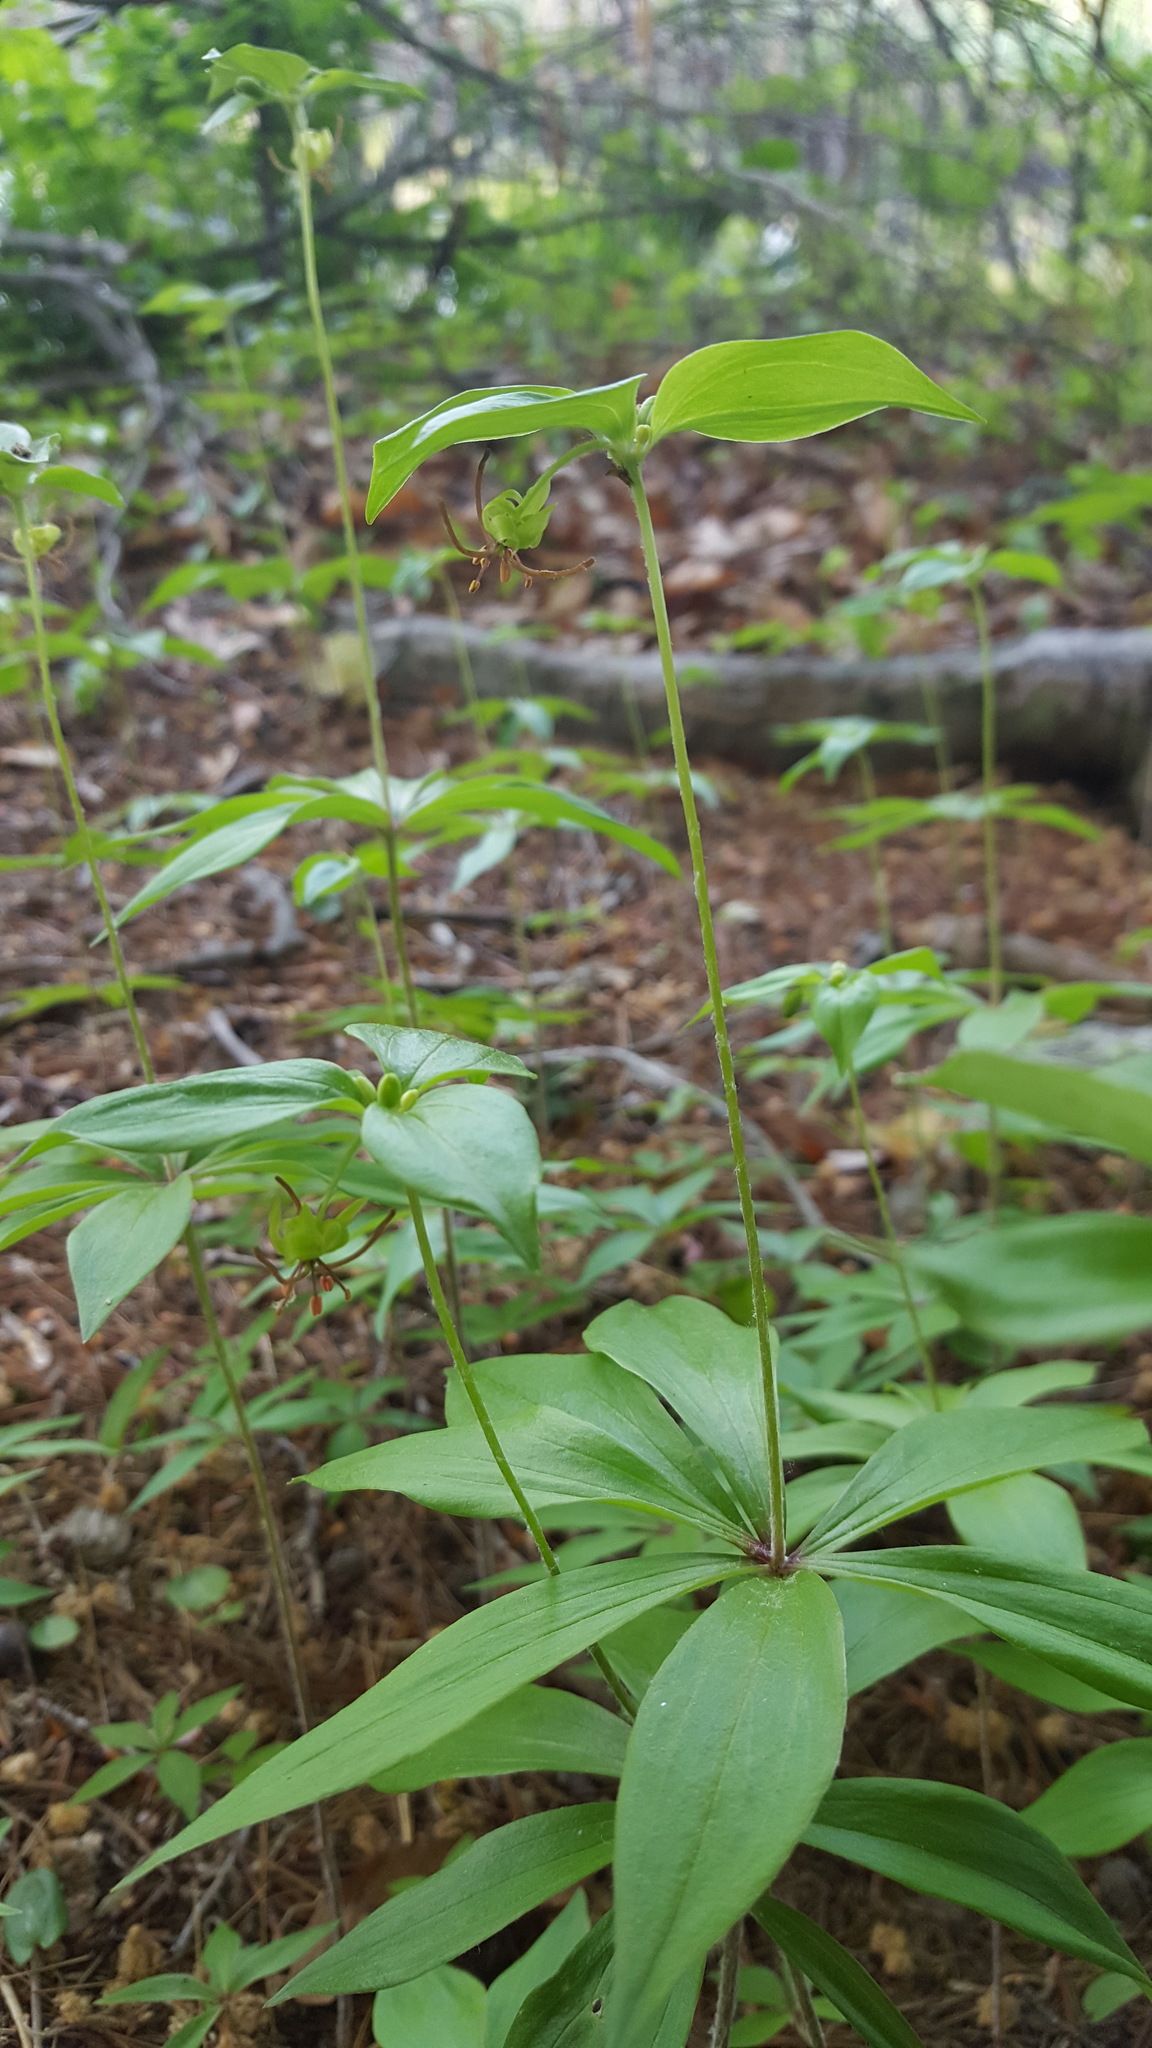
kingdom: Plantae
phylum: Tracheophyta
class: Liliopsida
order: Liliales
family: Liliaceae
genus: Medeola
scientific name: Medeola virginiana
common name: Indian cucumber-root
